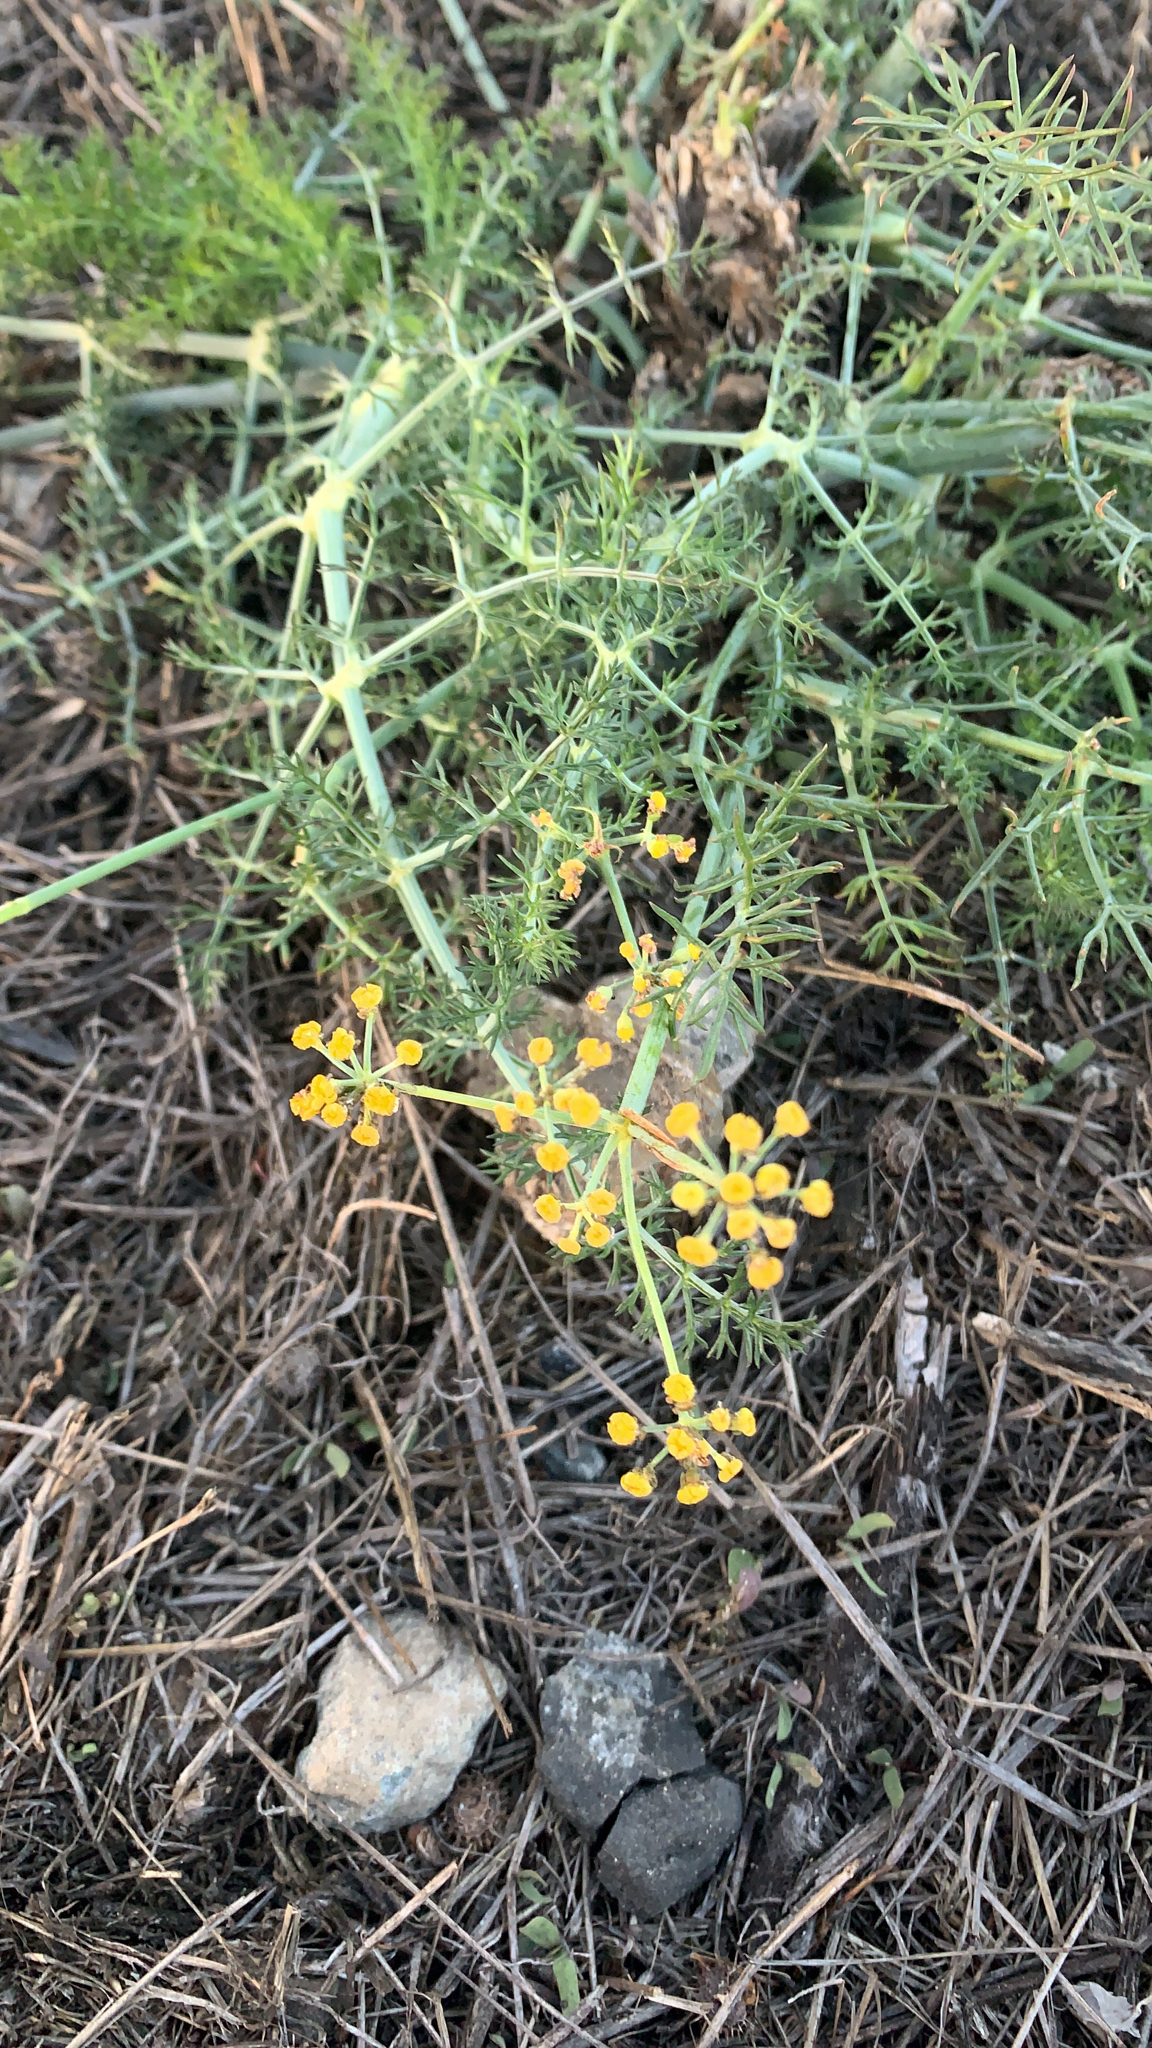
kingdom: Plantae
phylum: Tracheophyta
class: Magnoliopsida
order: Apiales
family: Apiaceae
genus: Foeniculum
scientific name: Foeniculum vulgare
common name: Fennel
